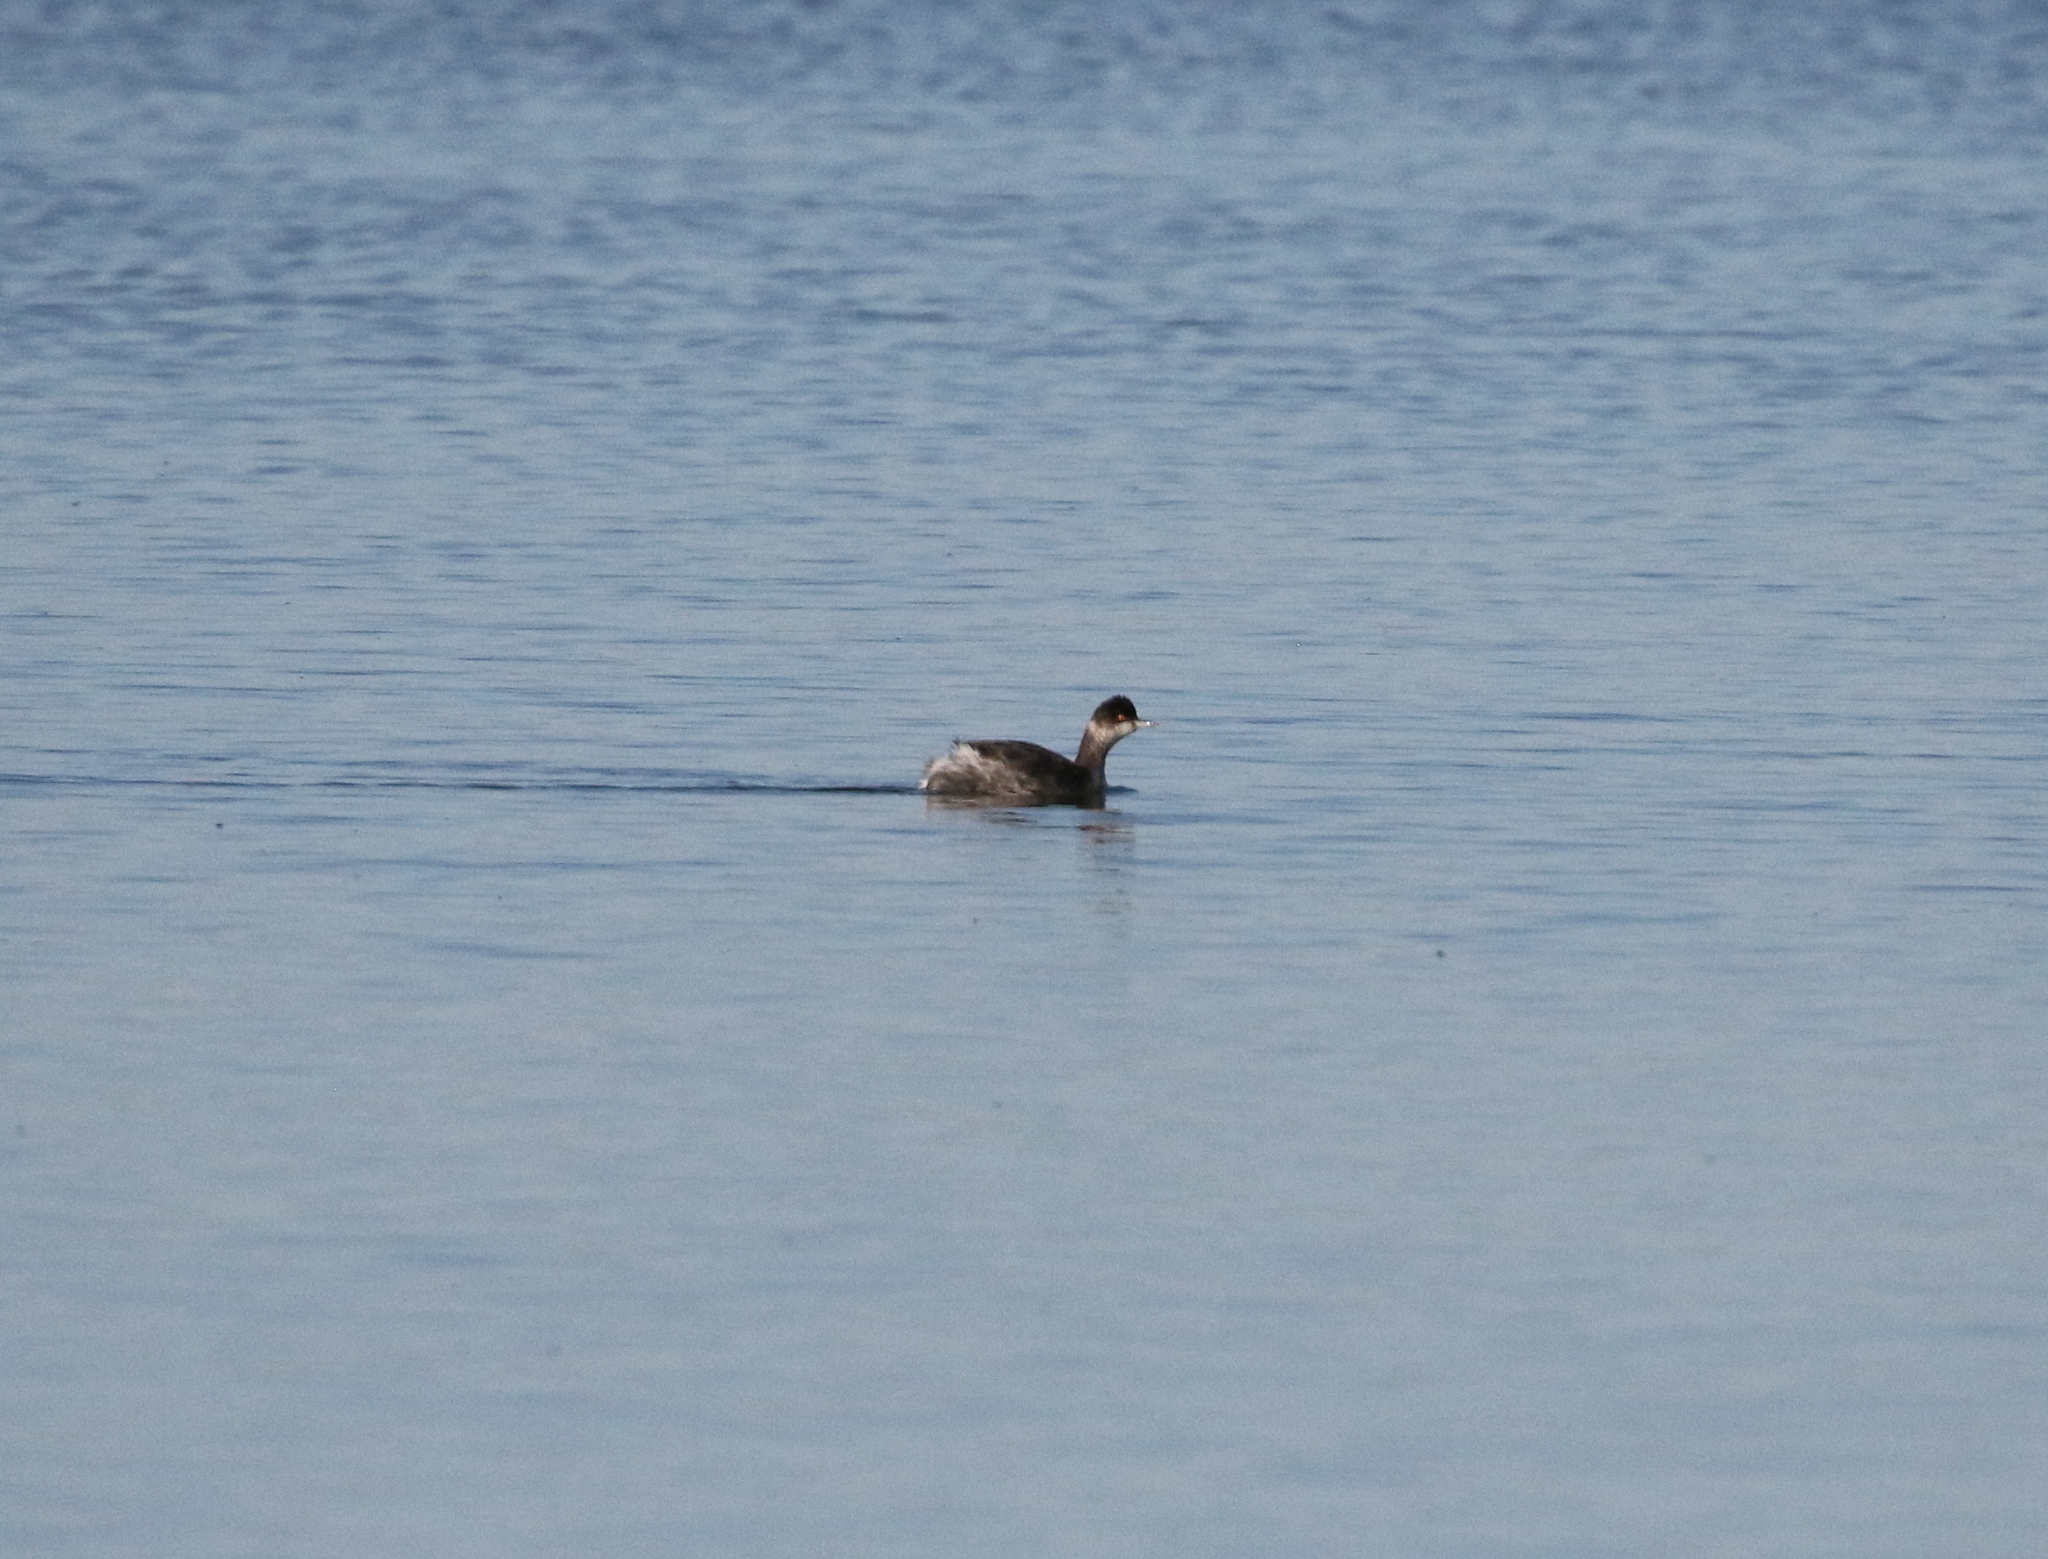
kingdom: Animalia
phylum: Chordata
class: Aves
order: Podicipediformes
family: Podicipedidae
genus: Podiceps
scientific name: Podiceps nigricollis
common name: Black-necked grebe
